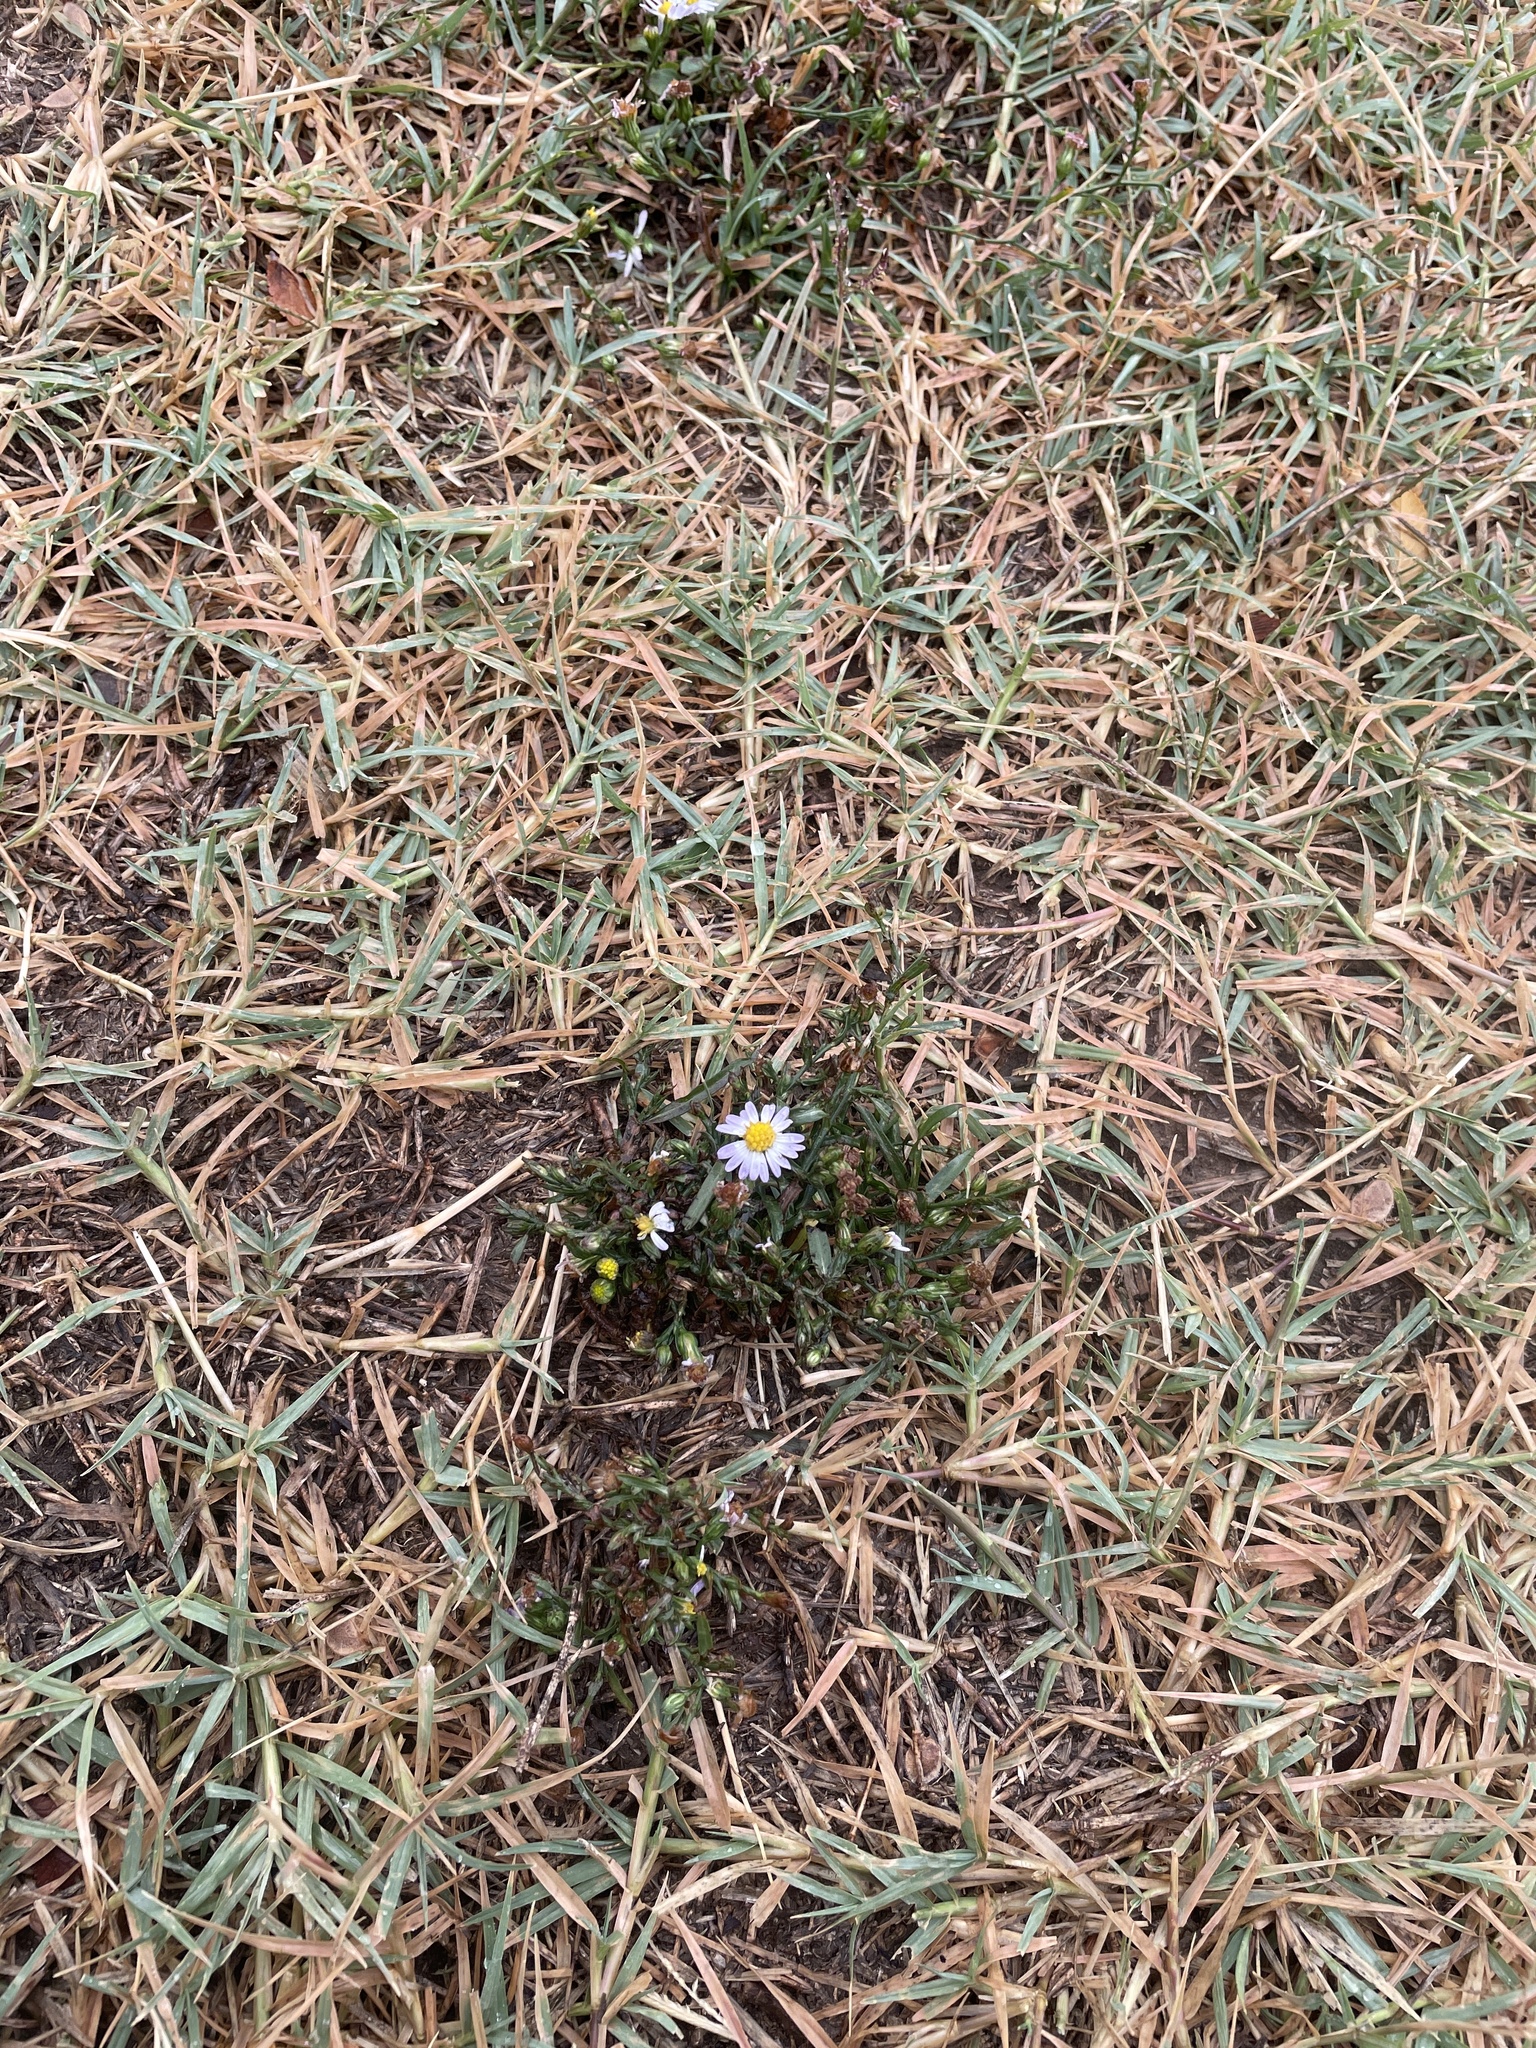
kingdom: Plantae
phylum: Tracheophyta
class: Magnoliopsida
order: Asterales
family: Asteraceae
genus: Symphyotrichum
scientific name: Symphyotrichum divaricatum
